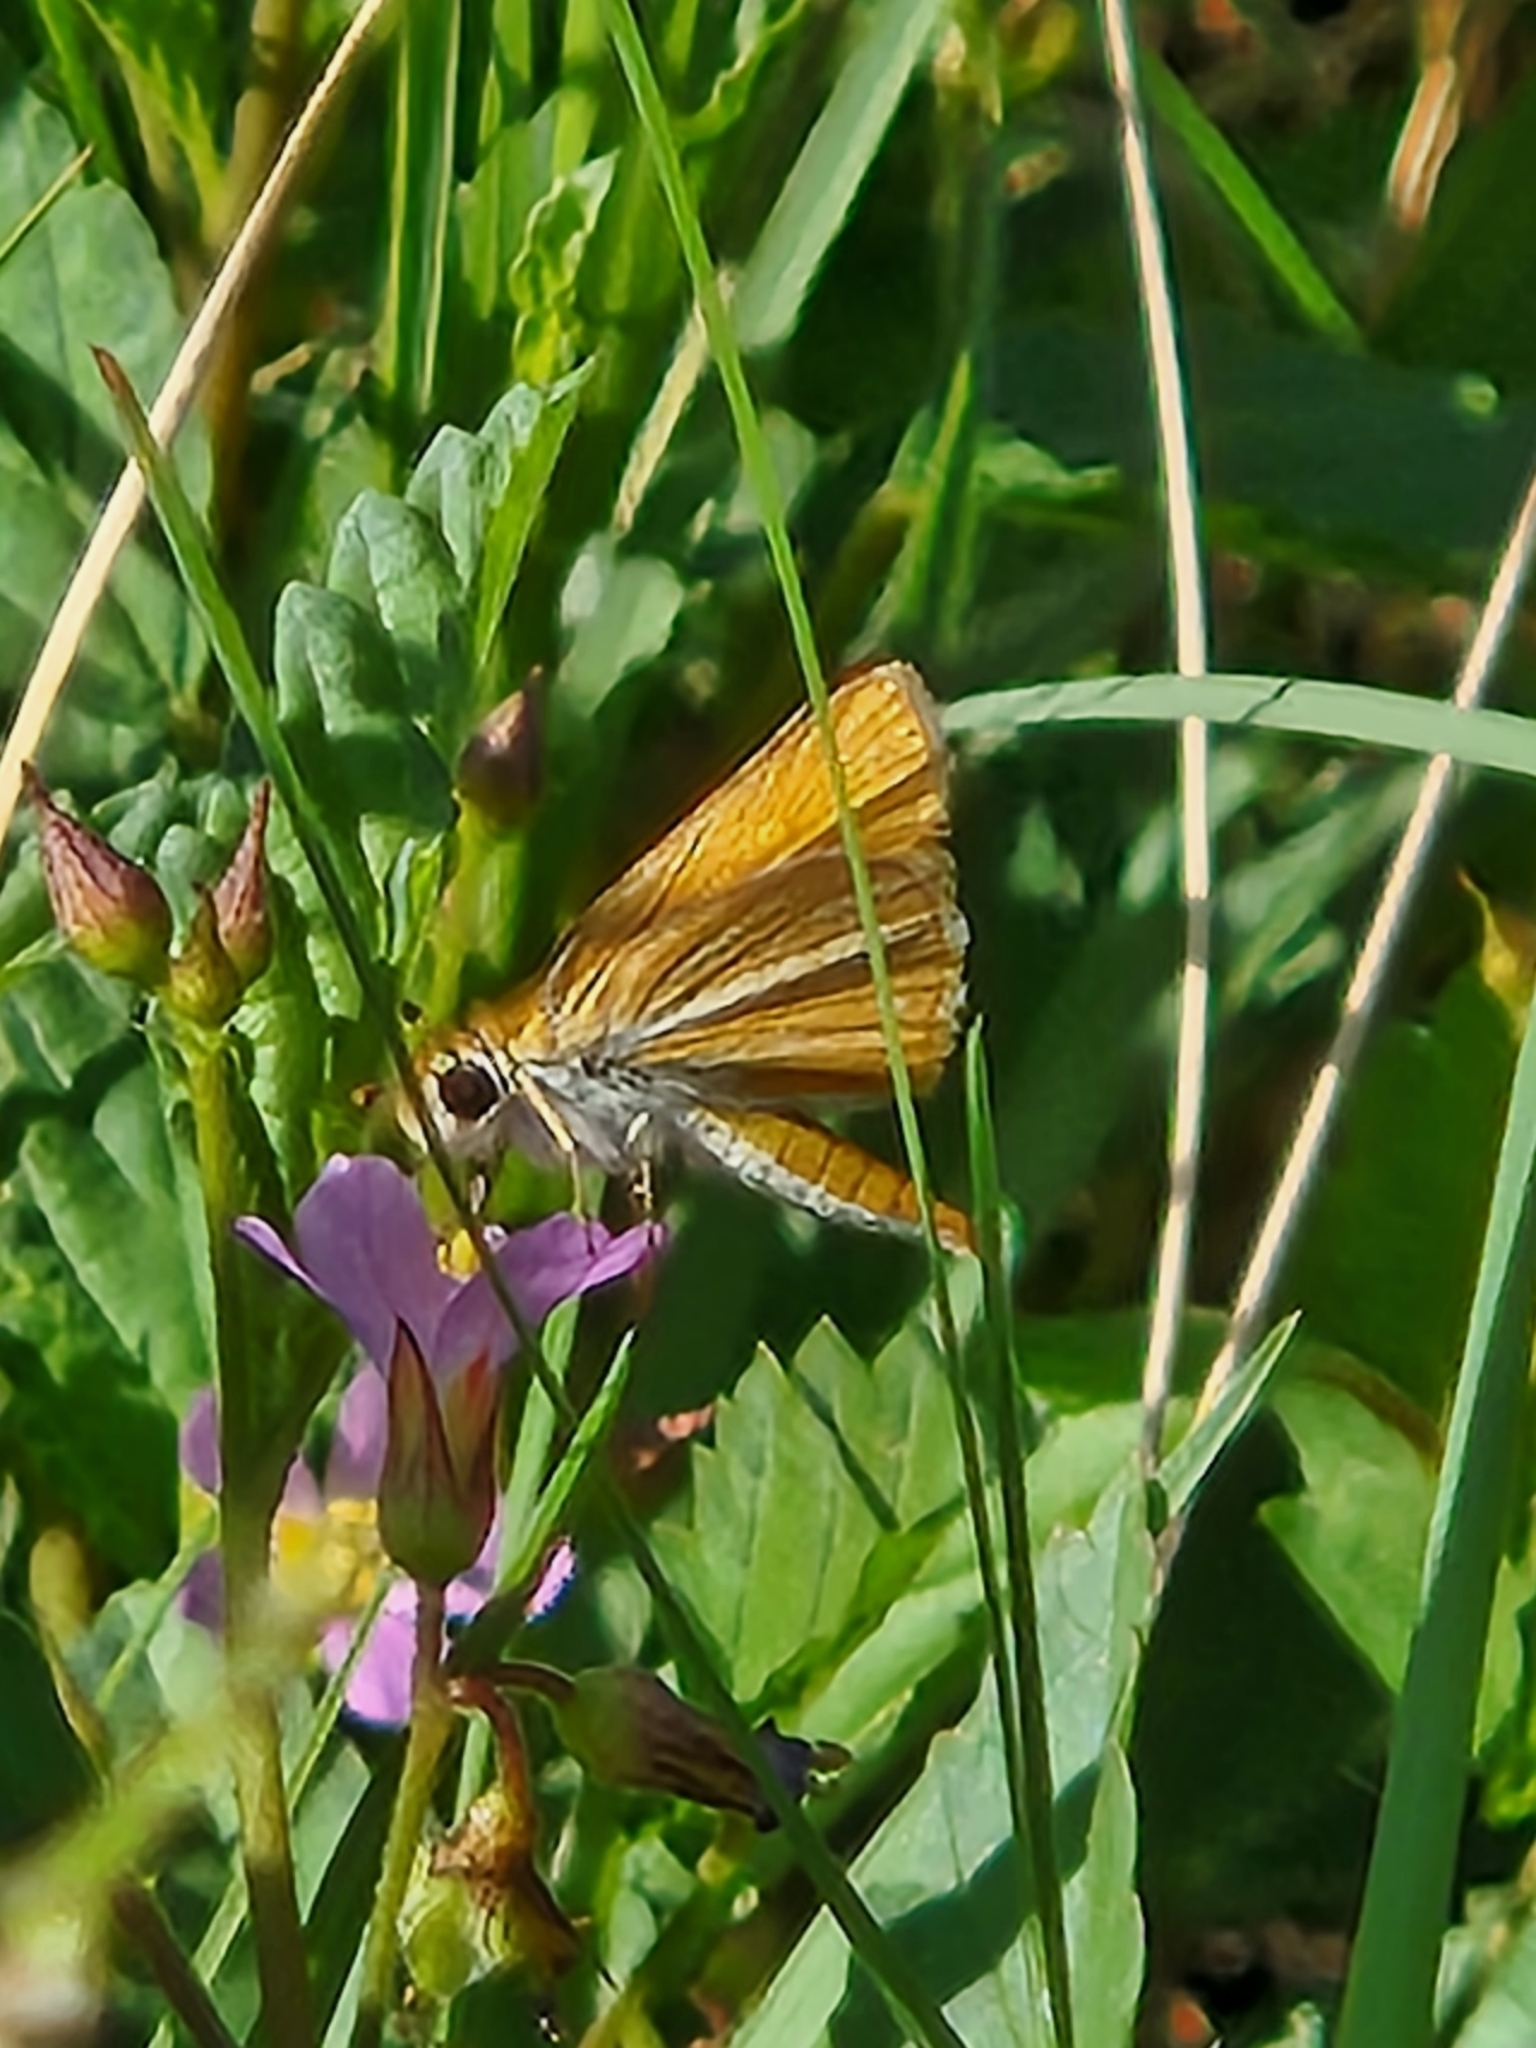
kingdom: Animalia
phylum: Arthropoda
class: Insecta
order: Lepidoptera
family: Hesperiidae
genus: Copaeodes
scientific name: Copaeodes minima
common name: Southern skipperling
